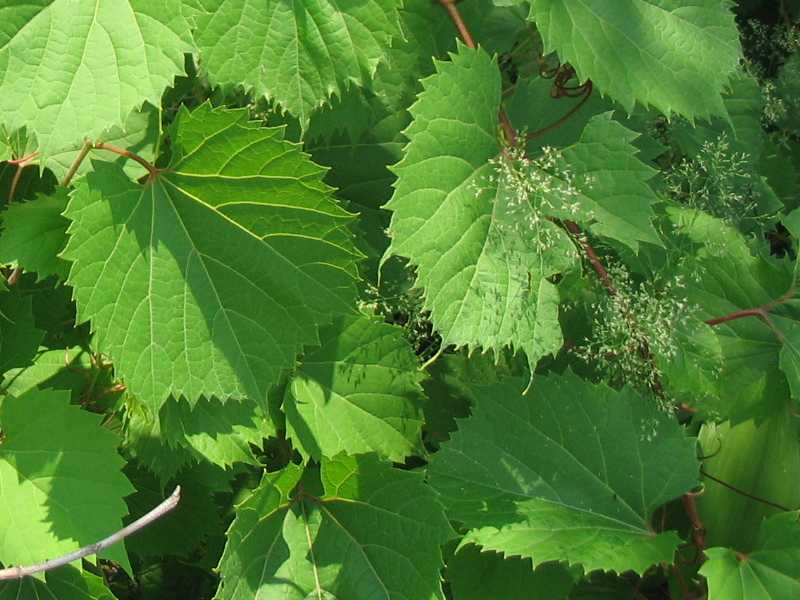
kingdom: Plantae
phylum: Tracheophyta
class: Magnoliopsida
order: Vitales
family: Vitaceae
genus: Vitis
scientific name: Vitis riparia
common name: Frost grape
